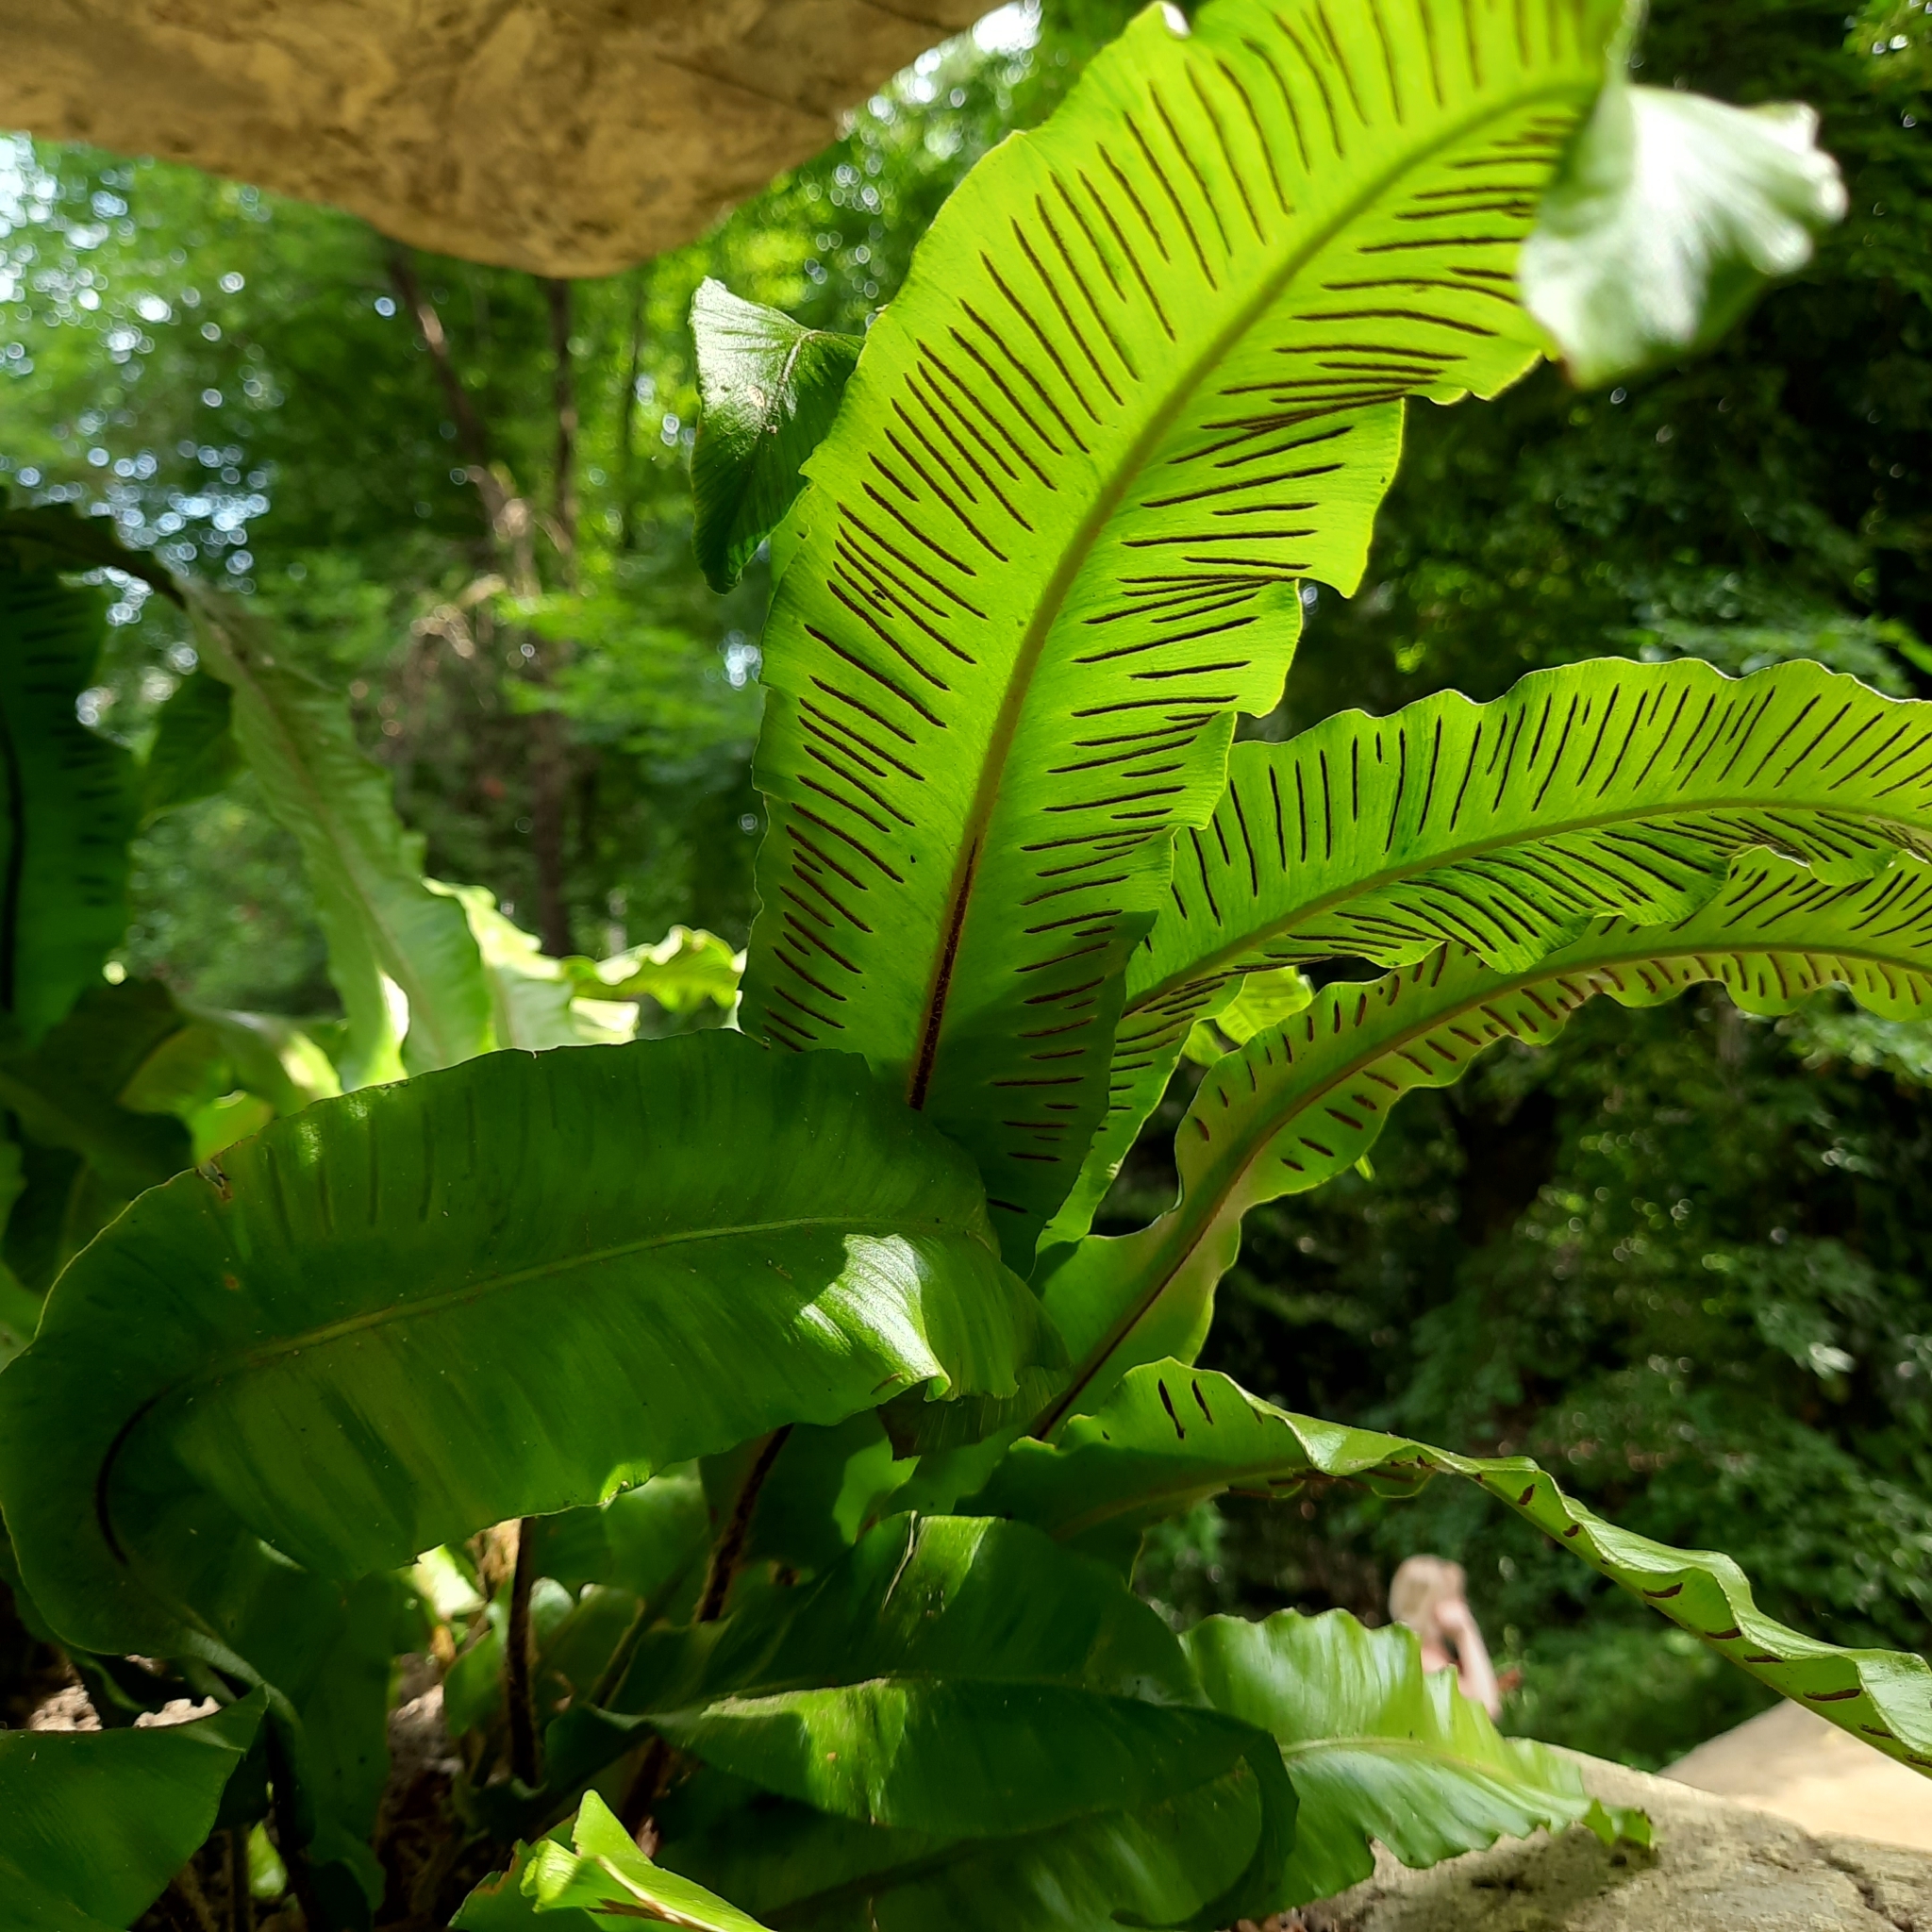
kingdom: Plantae
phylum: Tracheophyta
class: Polypodiopsida
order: Polypodiales
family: Aspleniaceae
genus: Asplenium
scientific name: Asplenium scolopendrium
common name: Hart's-tongue fern
